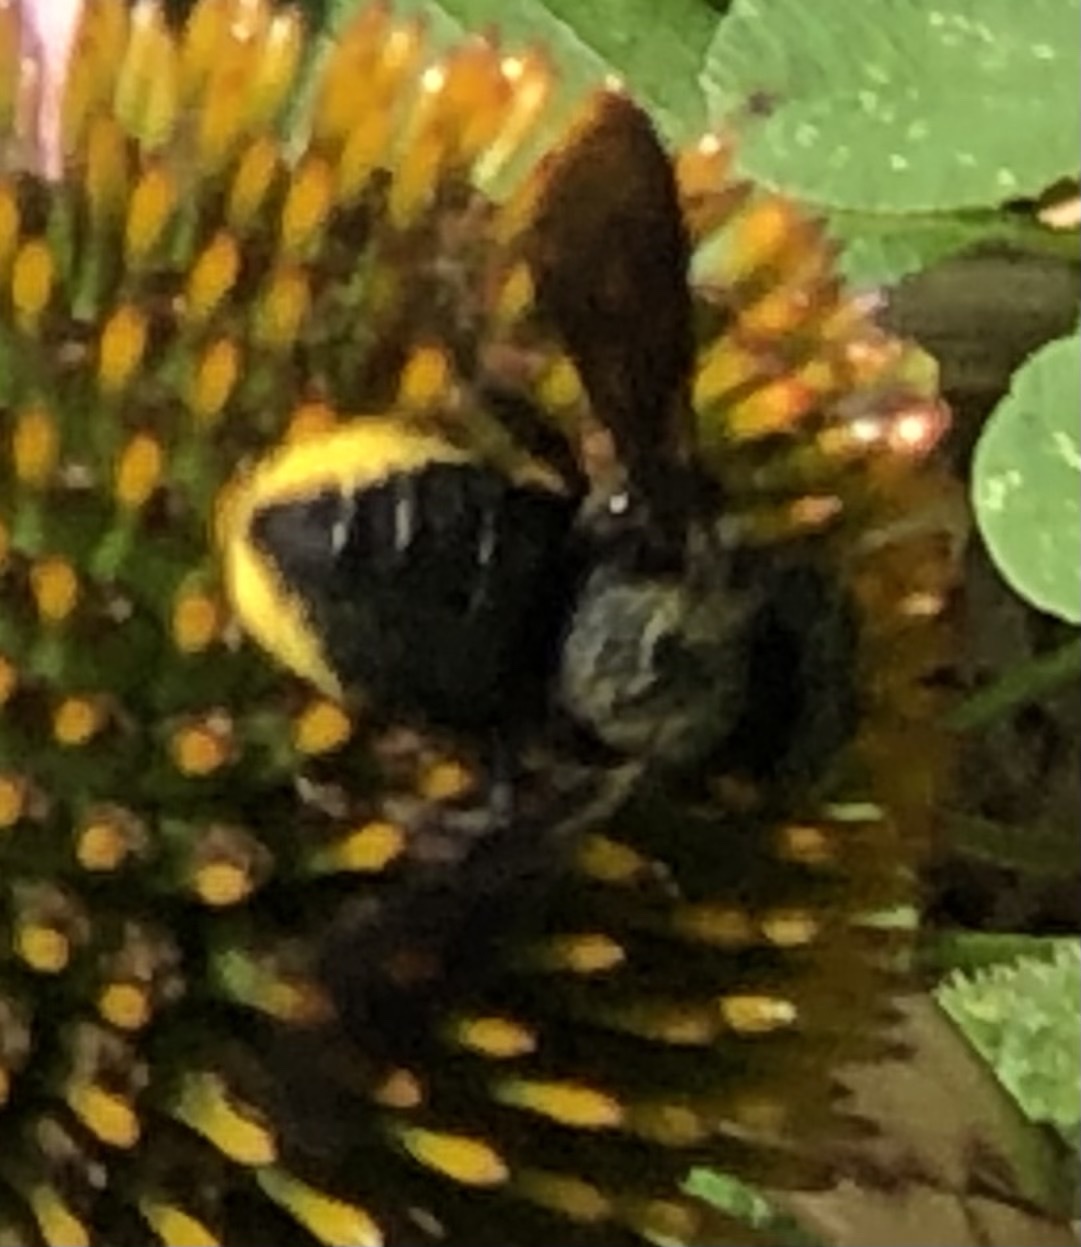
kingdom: Animalia
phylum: Arthropoda
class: Insecta
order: Hymenoptera
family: Megachilidae
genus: Megachile
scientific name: Megachile xylocopoides
